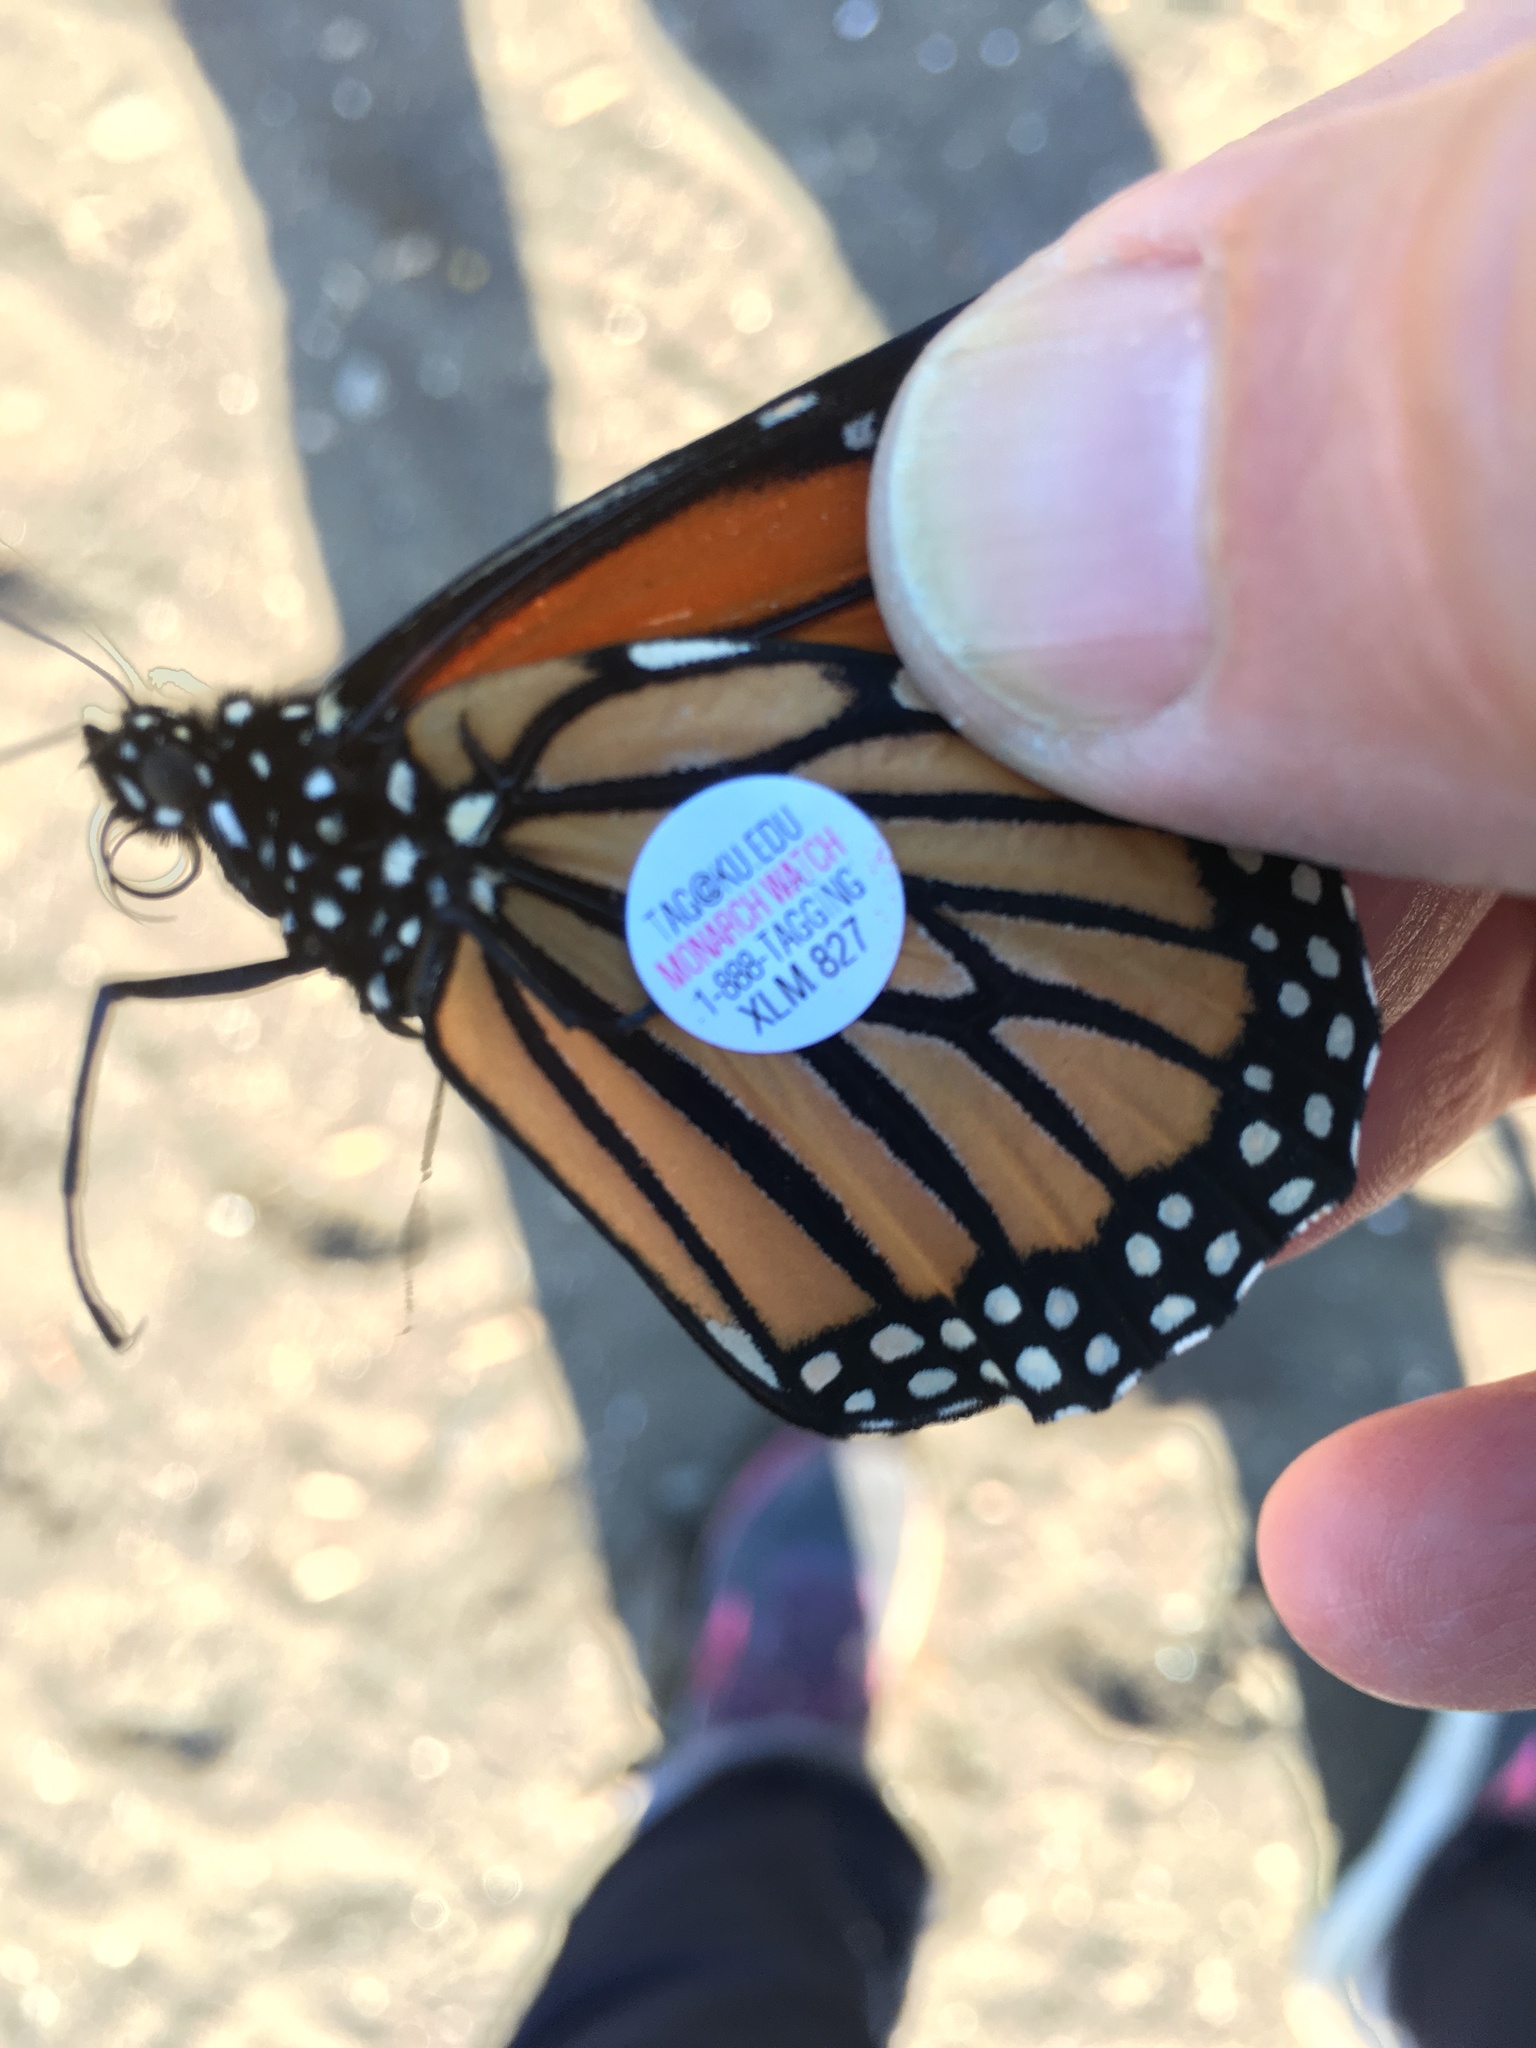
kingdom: Animalia
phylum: Arthropoda
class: Insecta
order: Lepidoptera
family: Nymphalidae
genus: Danaus
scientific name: Danaus plexippus
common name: Monarch
